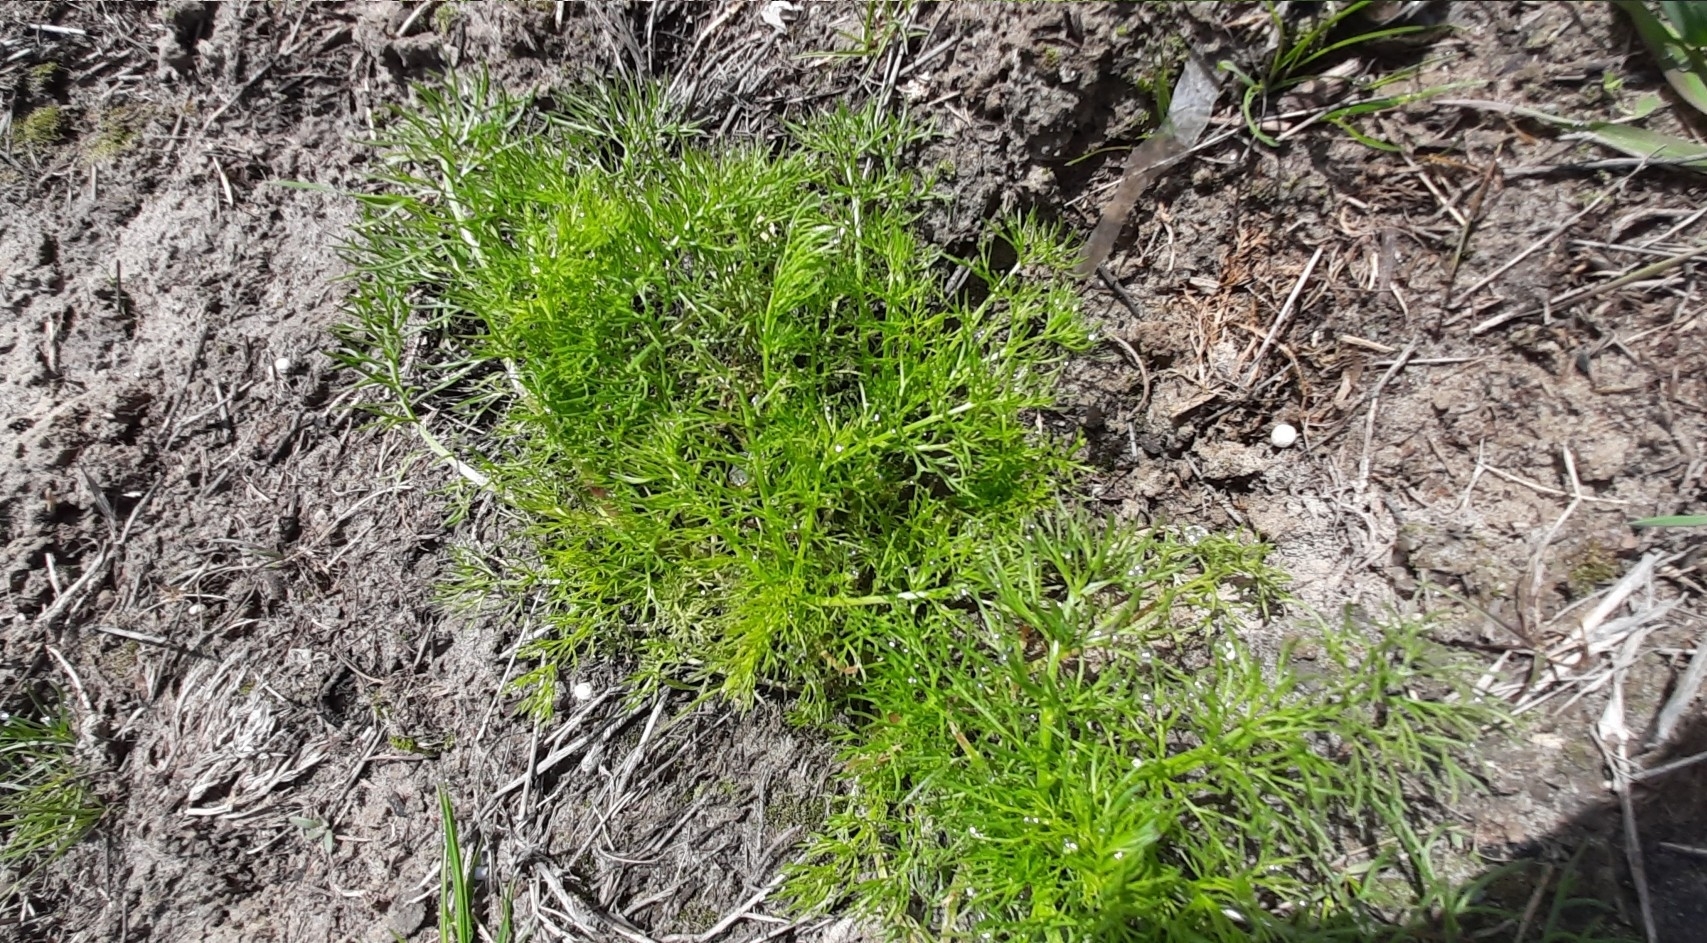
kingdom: Plantae
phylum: Tracheophyta
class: Magnoliopsida
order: Asterales
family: Asteraceae
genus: Tripleurospermum
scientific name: Tripleurospermum inodorum
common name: Scentless mayweed
